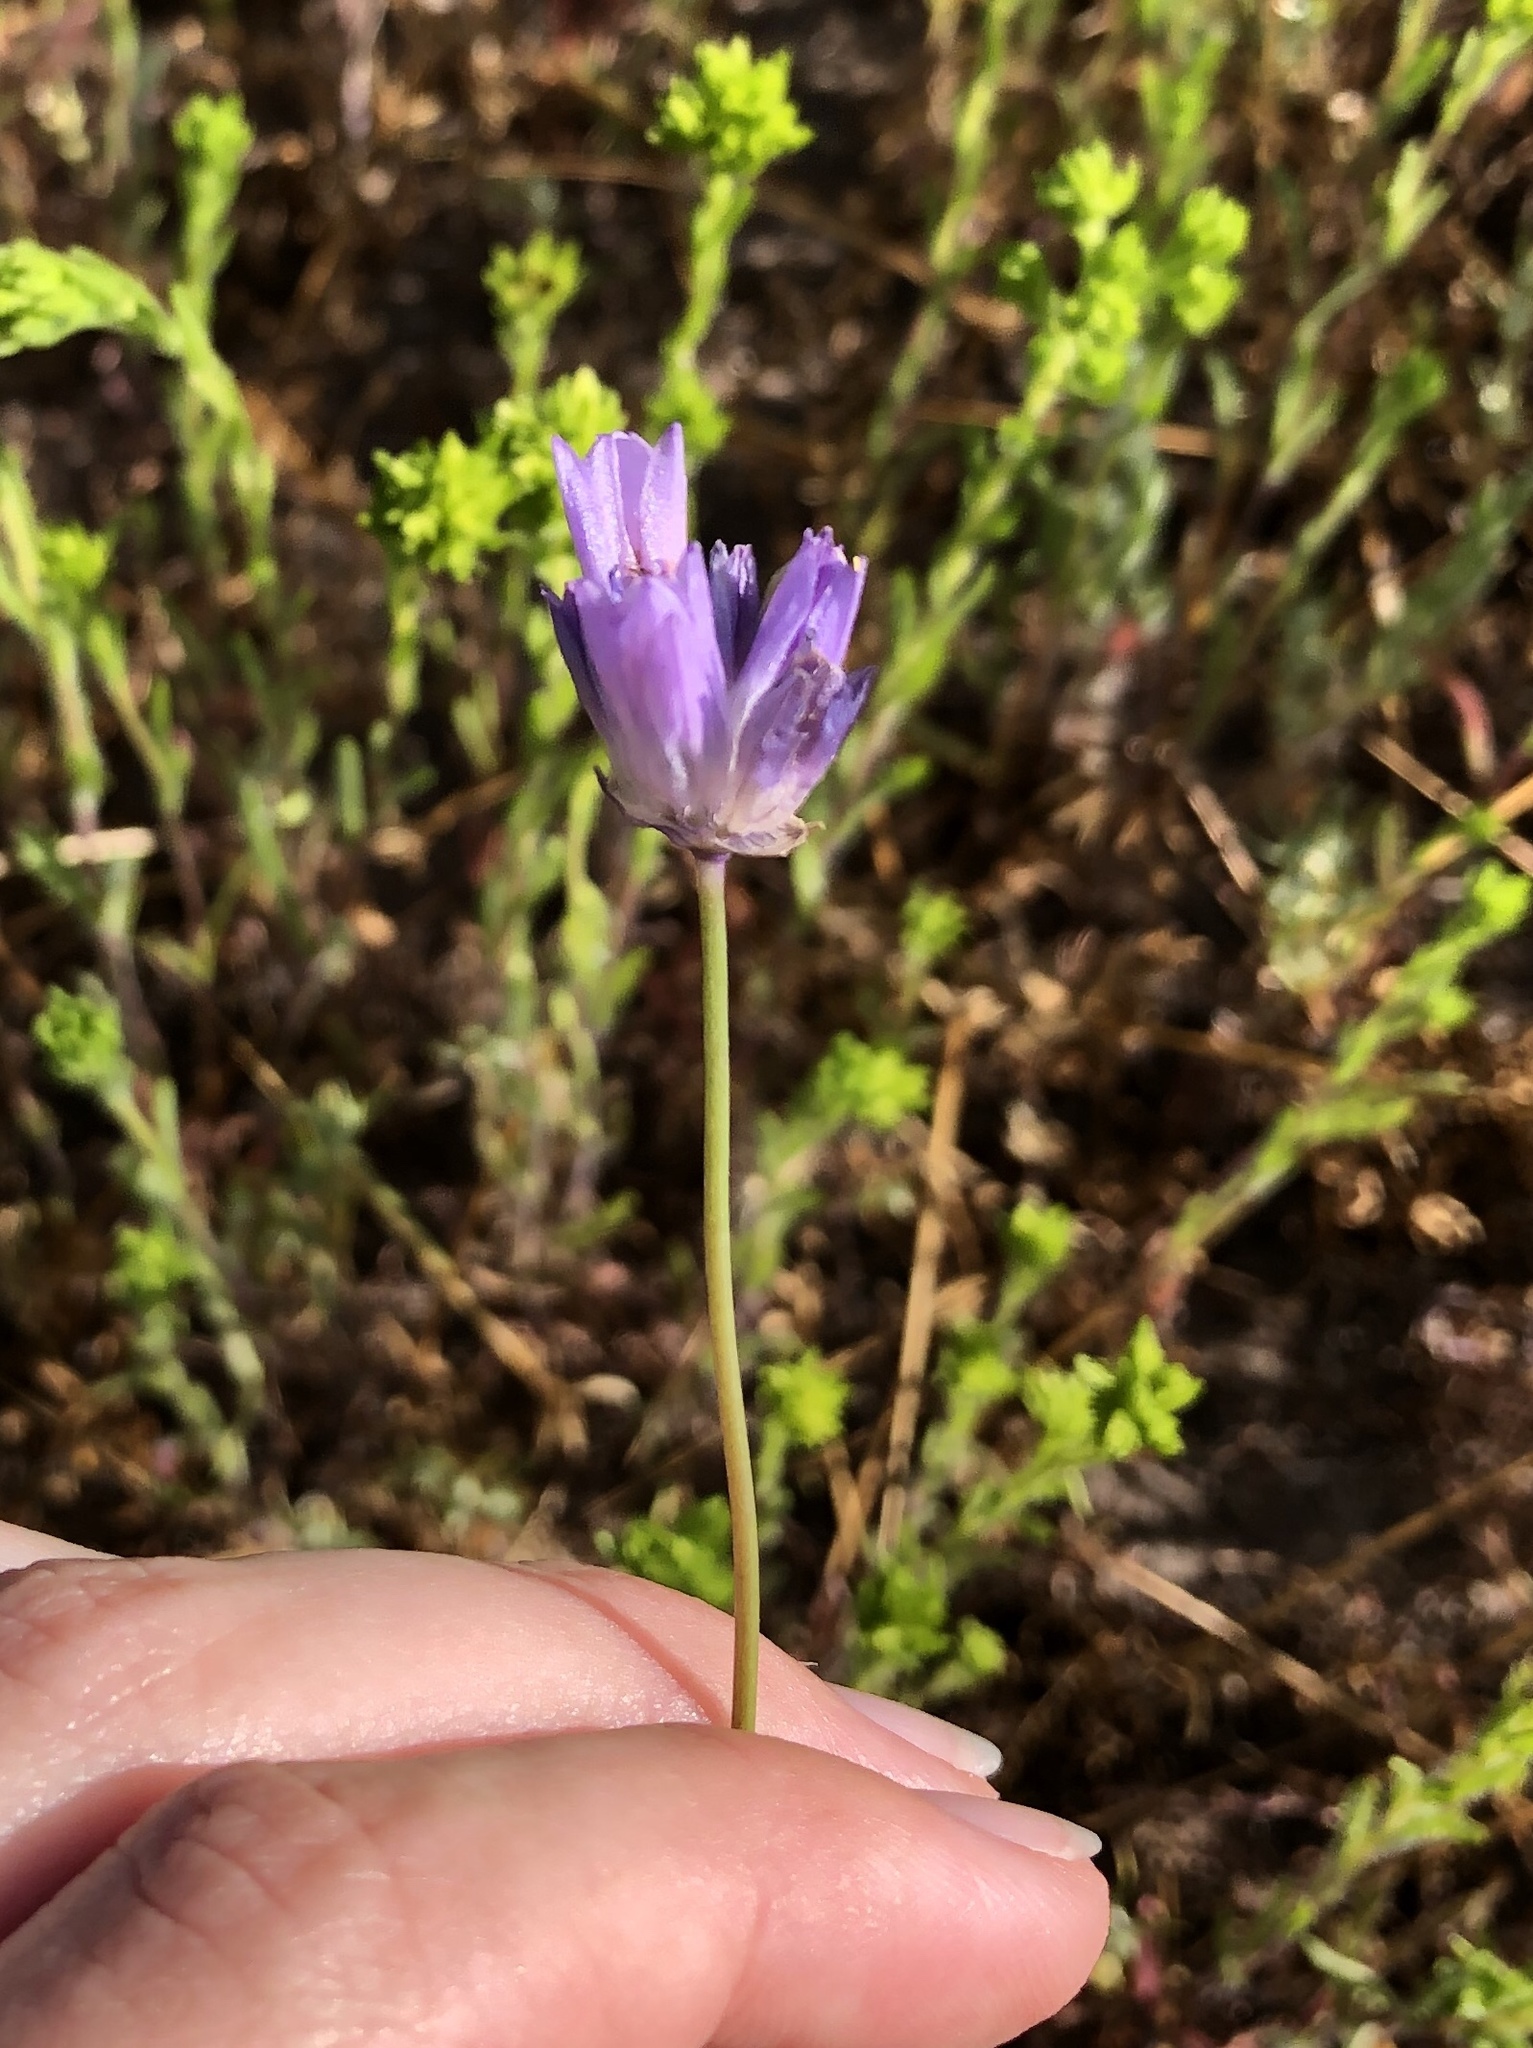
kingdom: Plantae
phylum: Tracheophyta
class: Liliopsida
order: Asparagales
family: Asparagaceae
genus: Dipterostemon
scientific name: Dipterostemon capitatus
